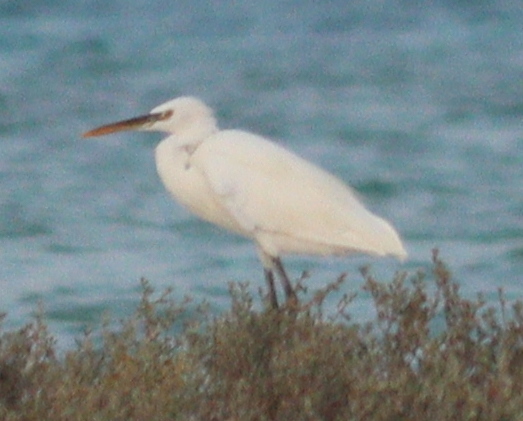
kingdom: Animalia
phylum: Chordata
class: Aves
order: Pelecaniformes
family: Ardeidae
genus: Egretta
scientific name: Egretta gularis
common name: Western reef-heron
